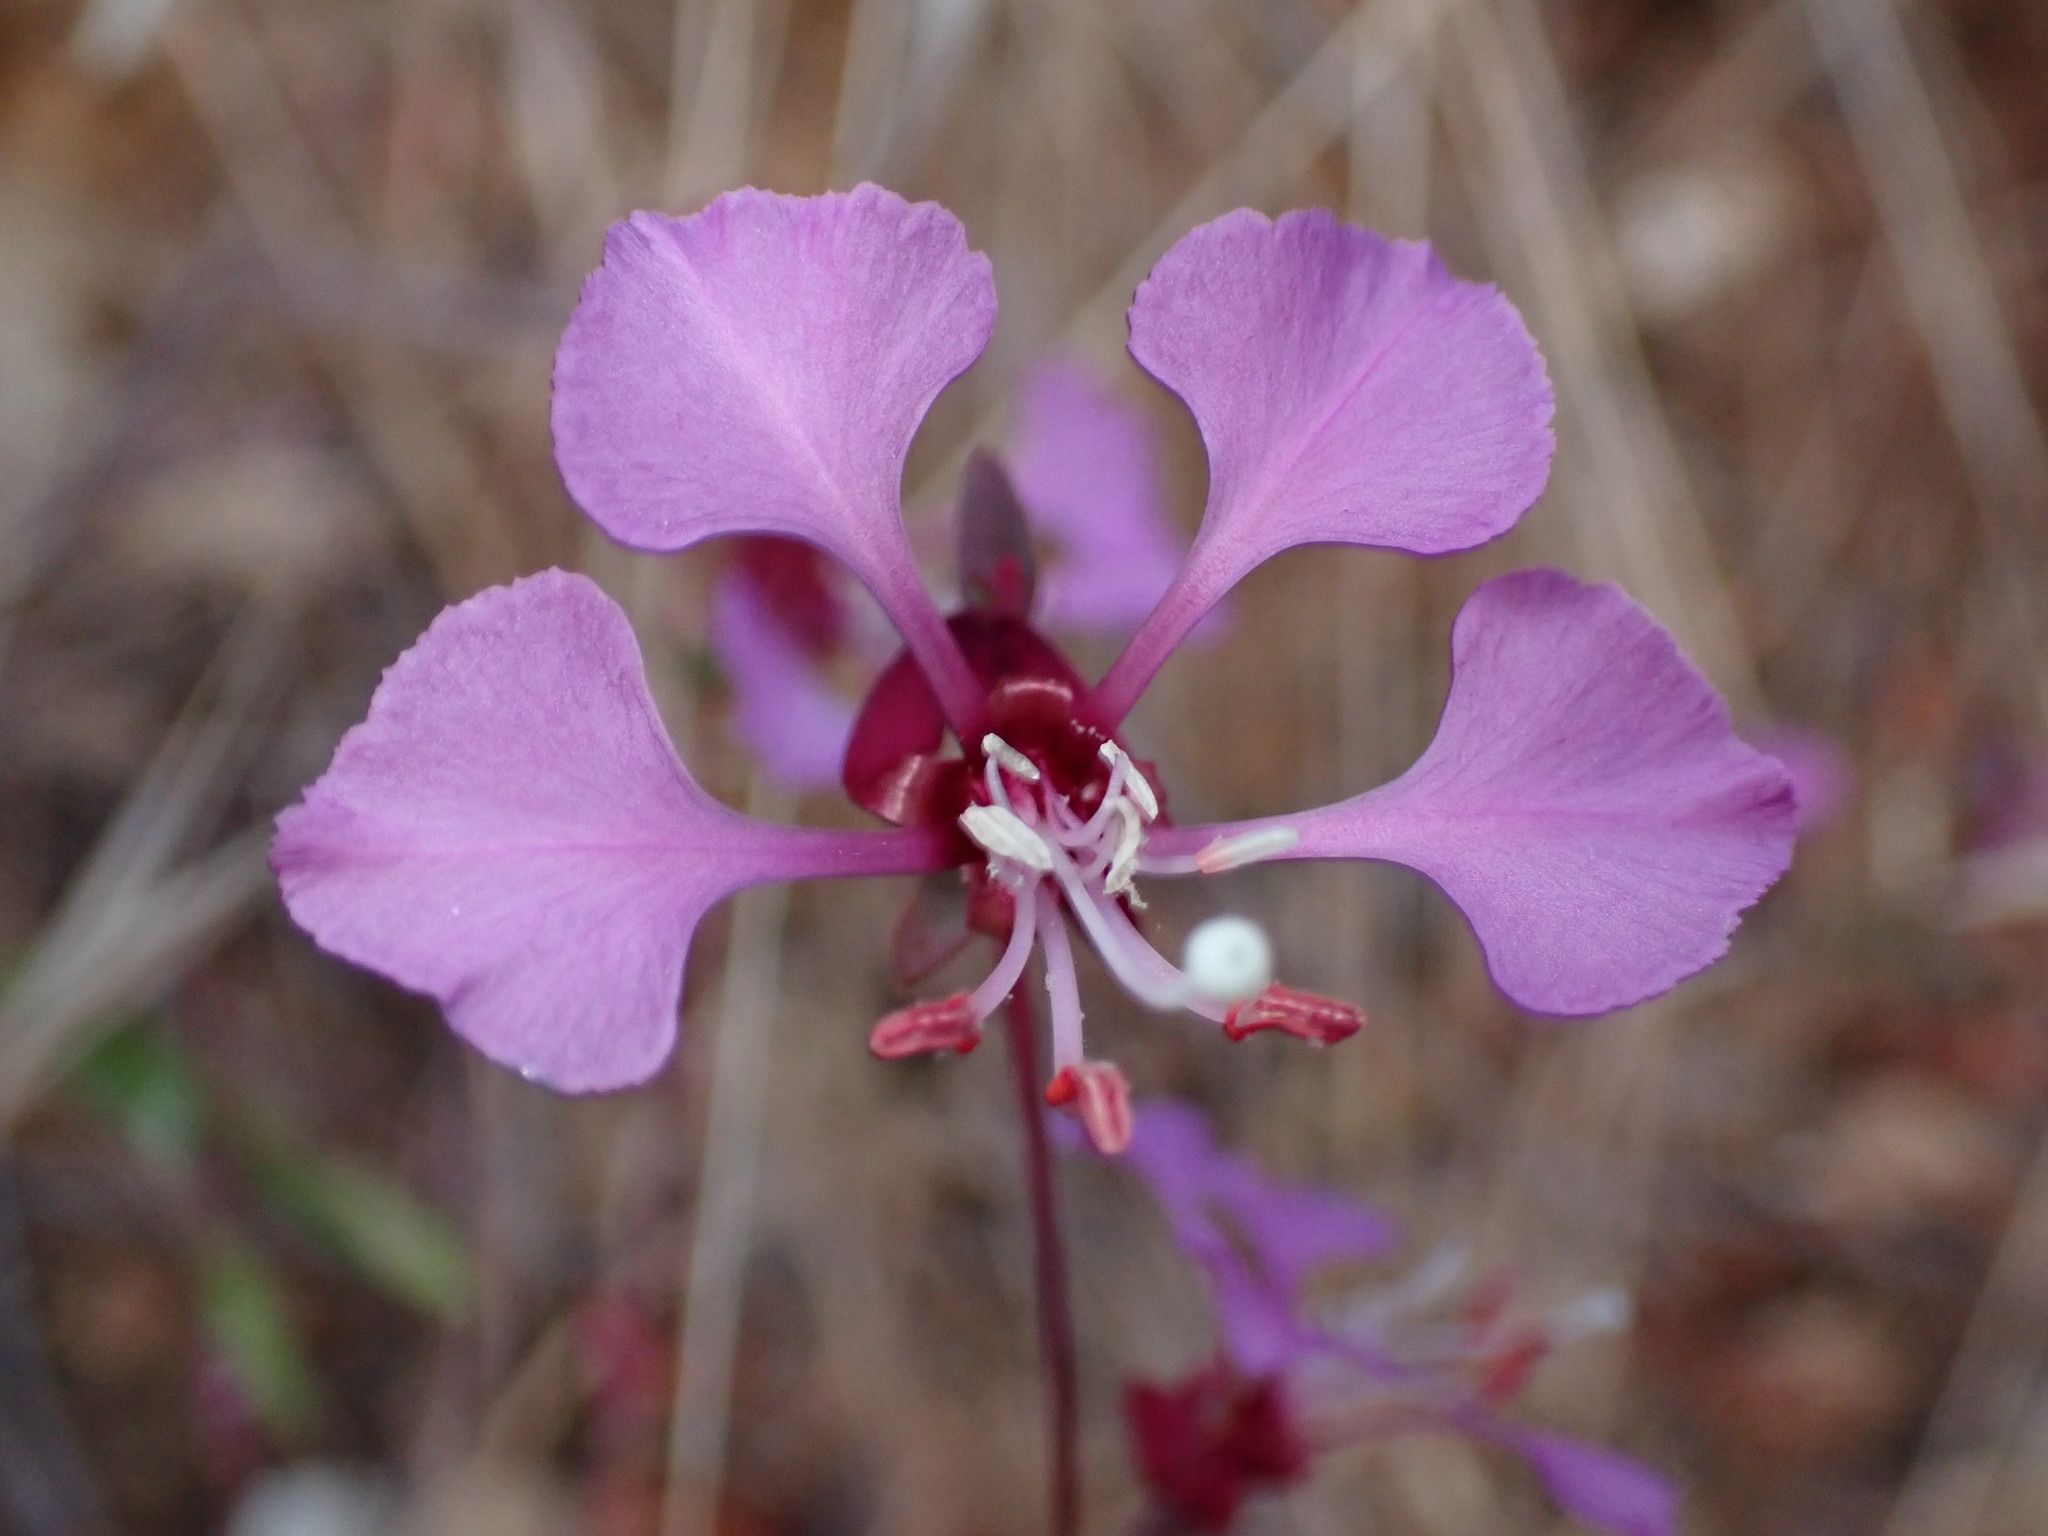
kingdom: Plantae
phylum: Tracheophyta
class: Magnoliopsida
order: Myrtales
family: Onagraceae
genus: Clarkia
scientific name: Clarkia unguiculata
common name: Clarkia
